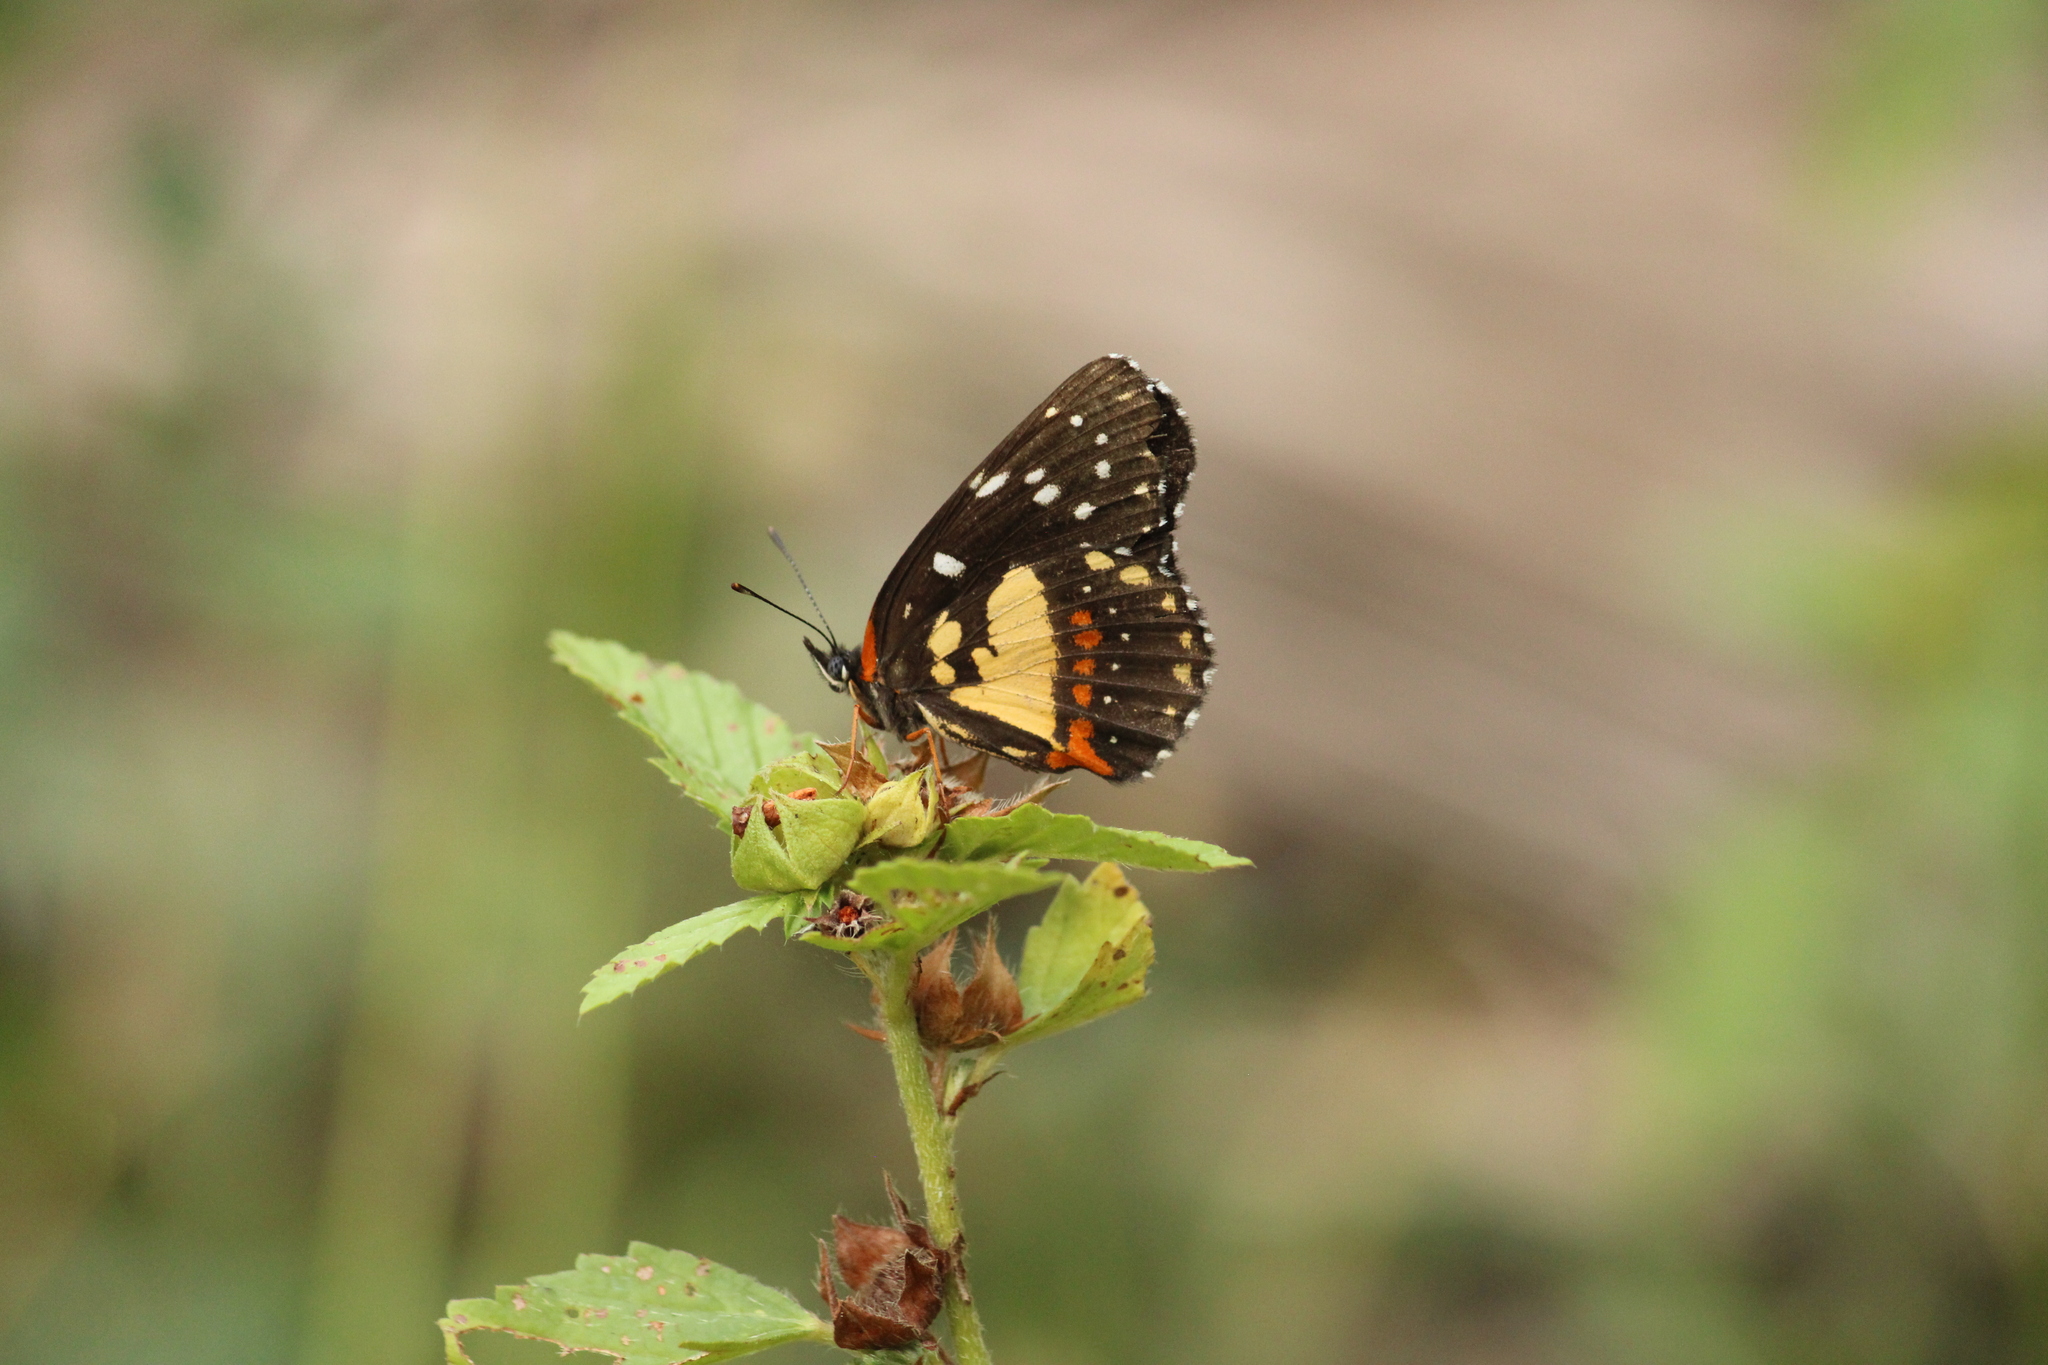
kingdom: Animalia
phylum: Arthropoda
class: Insecta
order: Lepidoptera
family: Nymphalidae
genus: Chlosyne
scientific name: Chlosyne rosita
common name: Rosita patch
